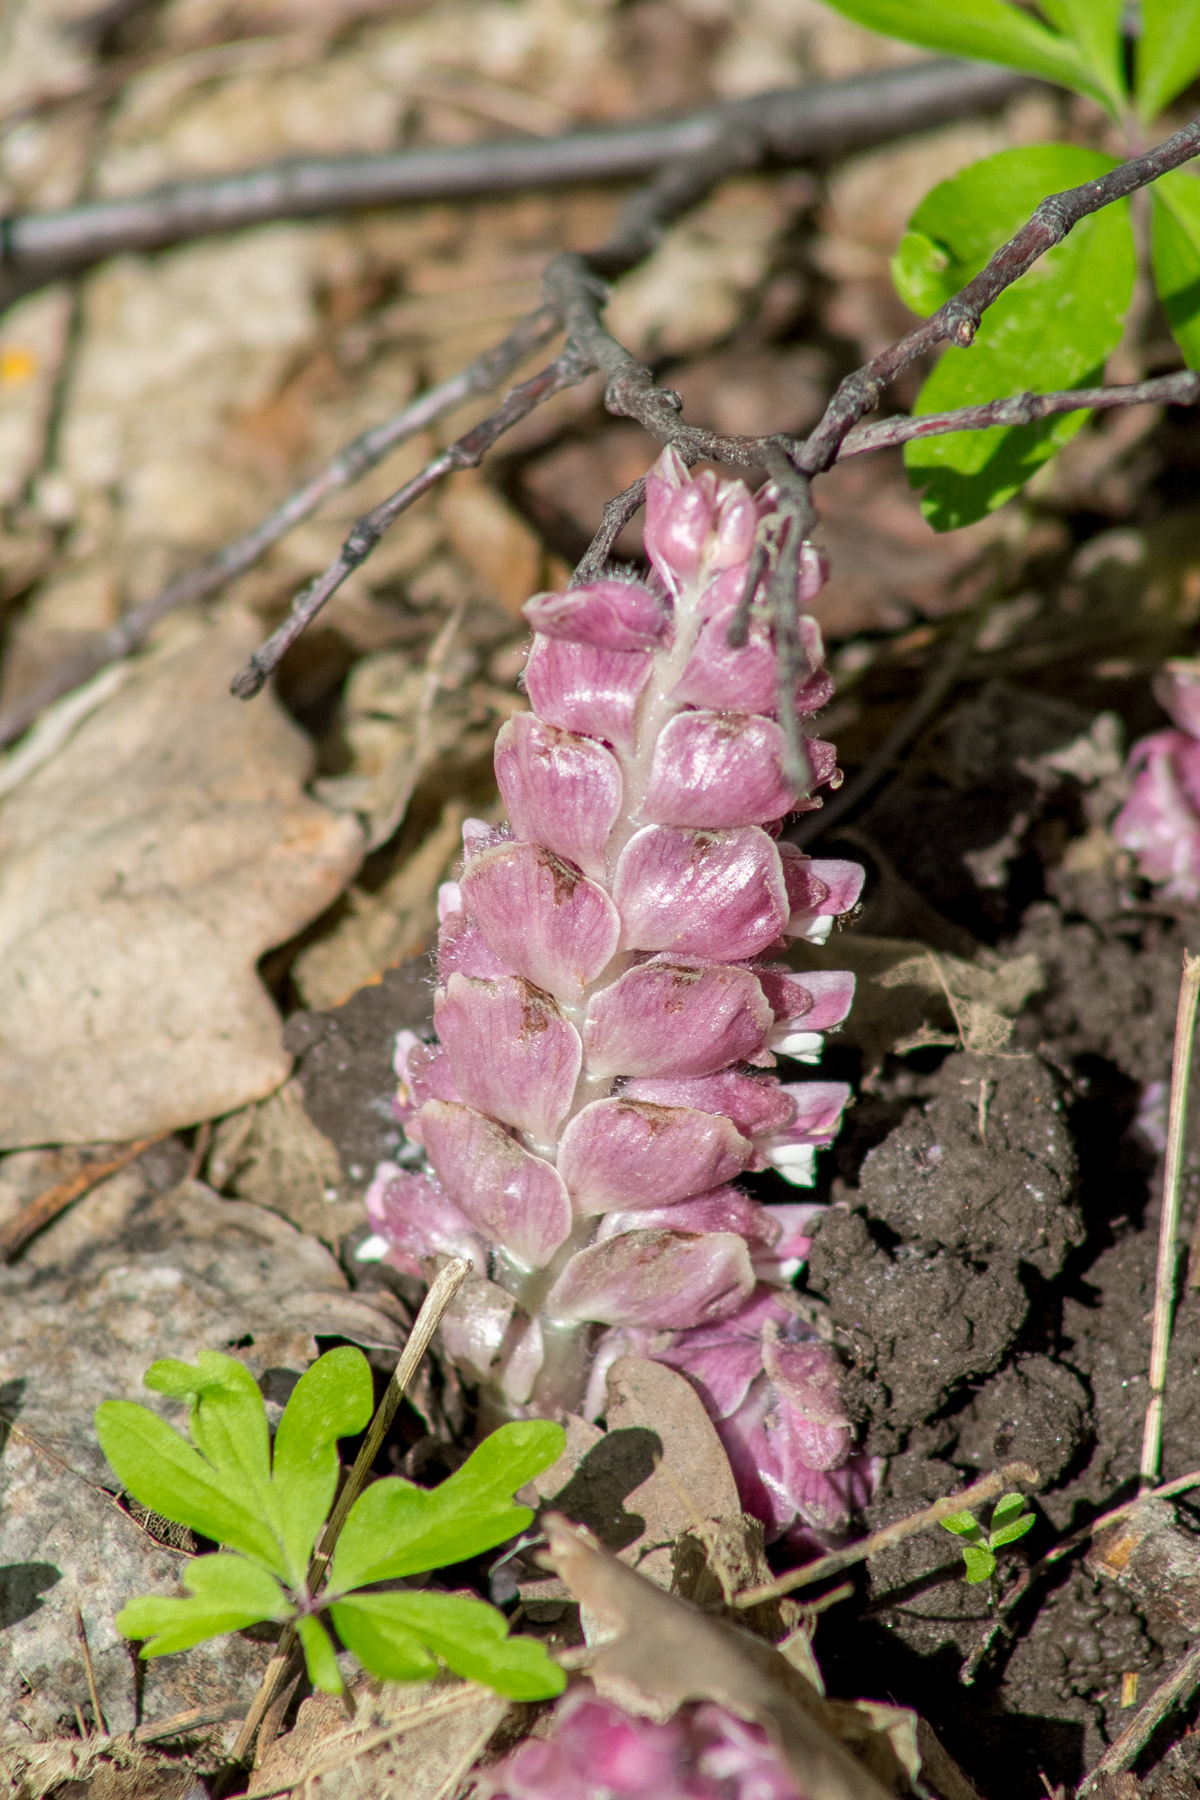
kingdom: Plantae
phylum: Tracheophyta
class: Magnoliopsida
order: Lamiales
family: Orobanchaceae
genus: Lathraea
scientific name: Lathraea squamaria
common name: Toothwort
